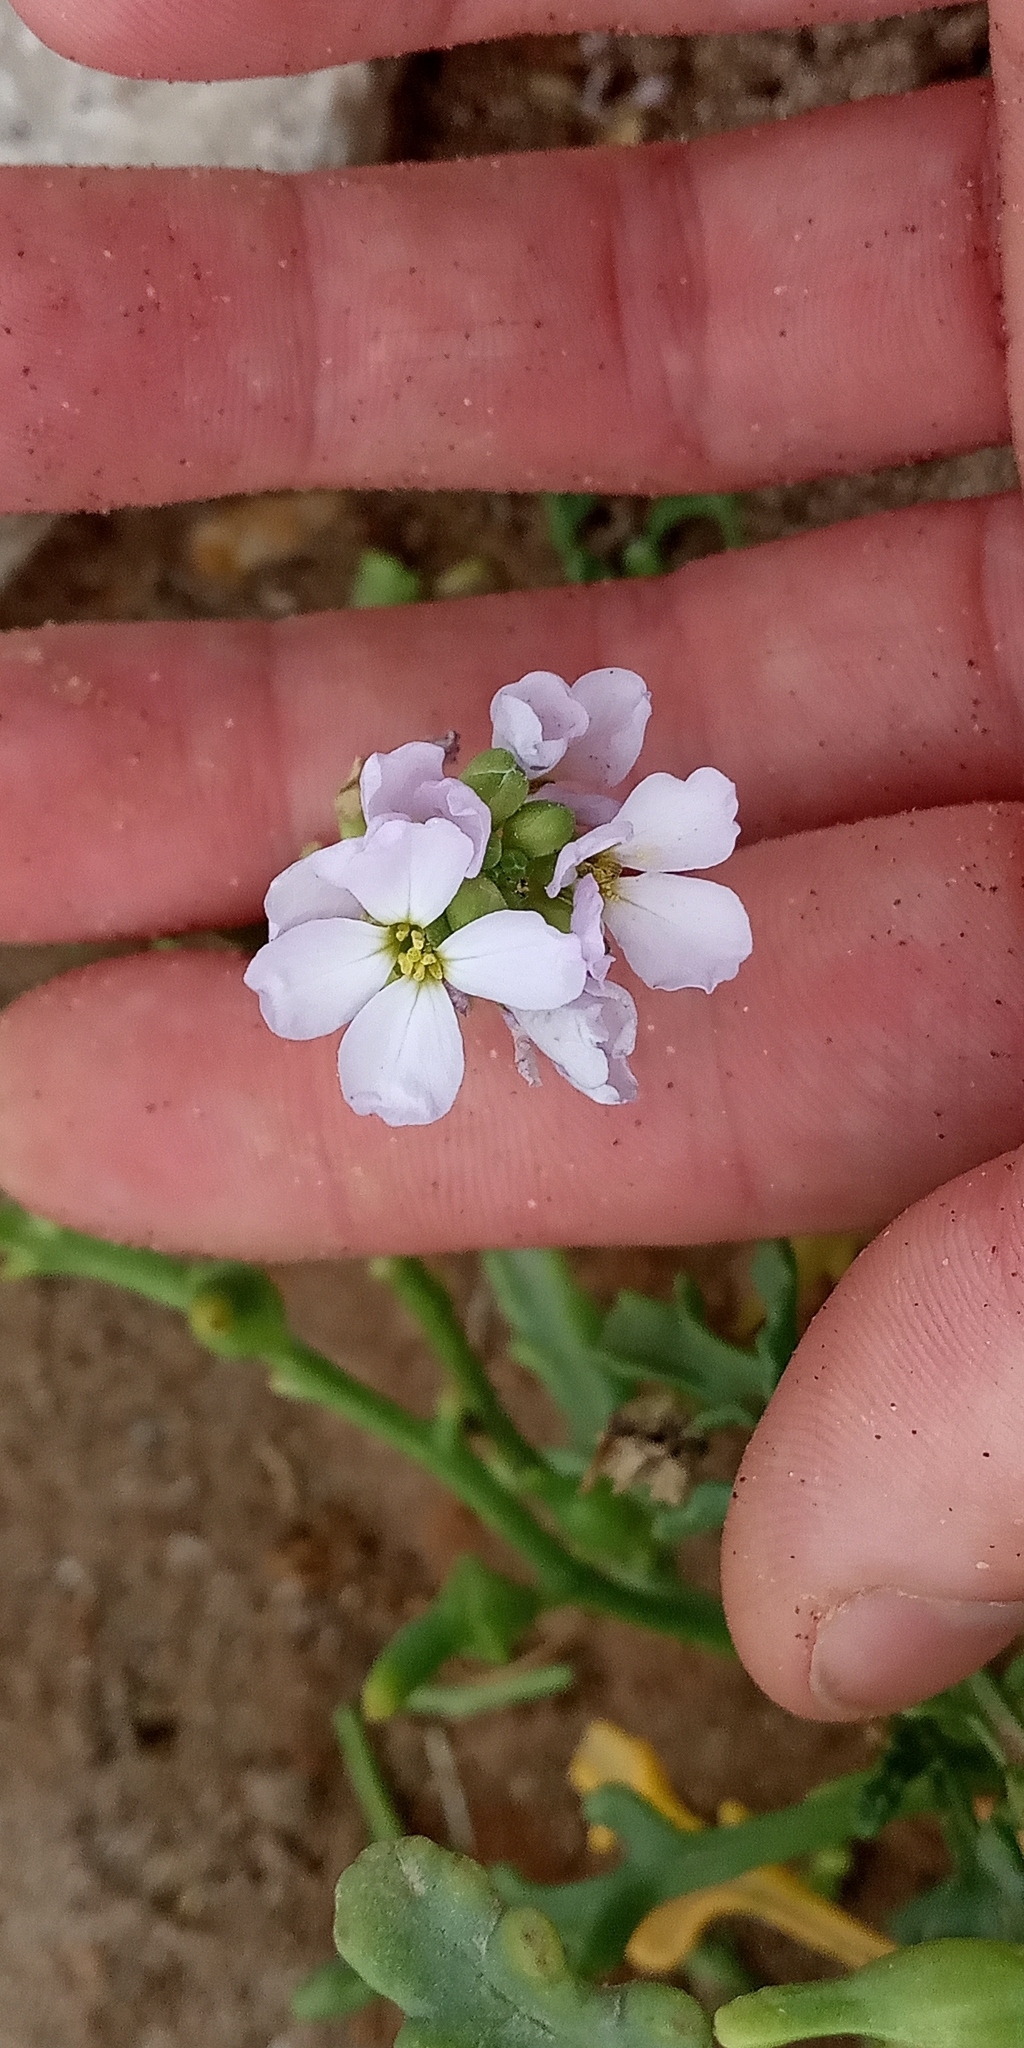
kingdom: Plantae
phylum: Tracheophyta
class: Magnoliopsida
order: Brassicales
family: Brassicaceae
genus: Cakile
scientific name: Cakile maritima
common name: Sea rocket
